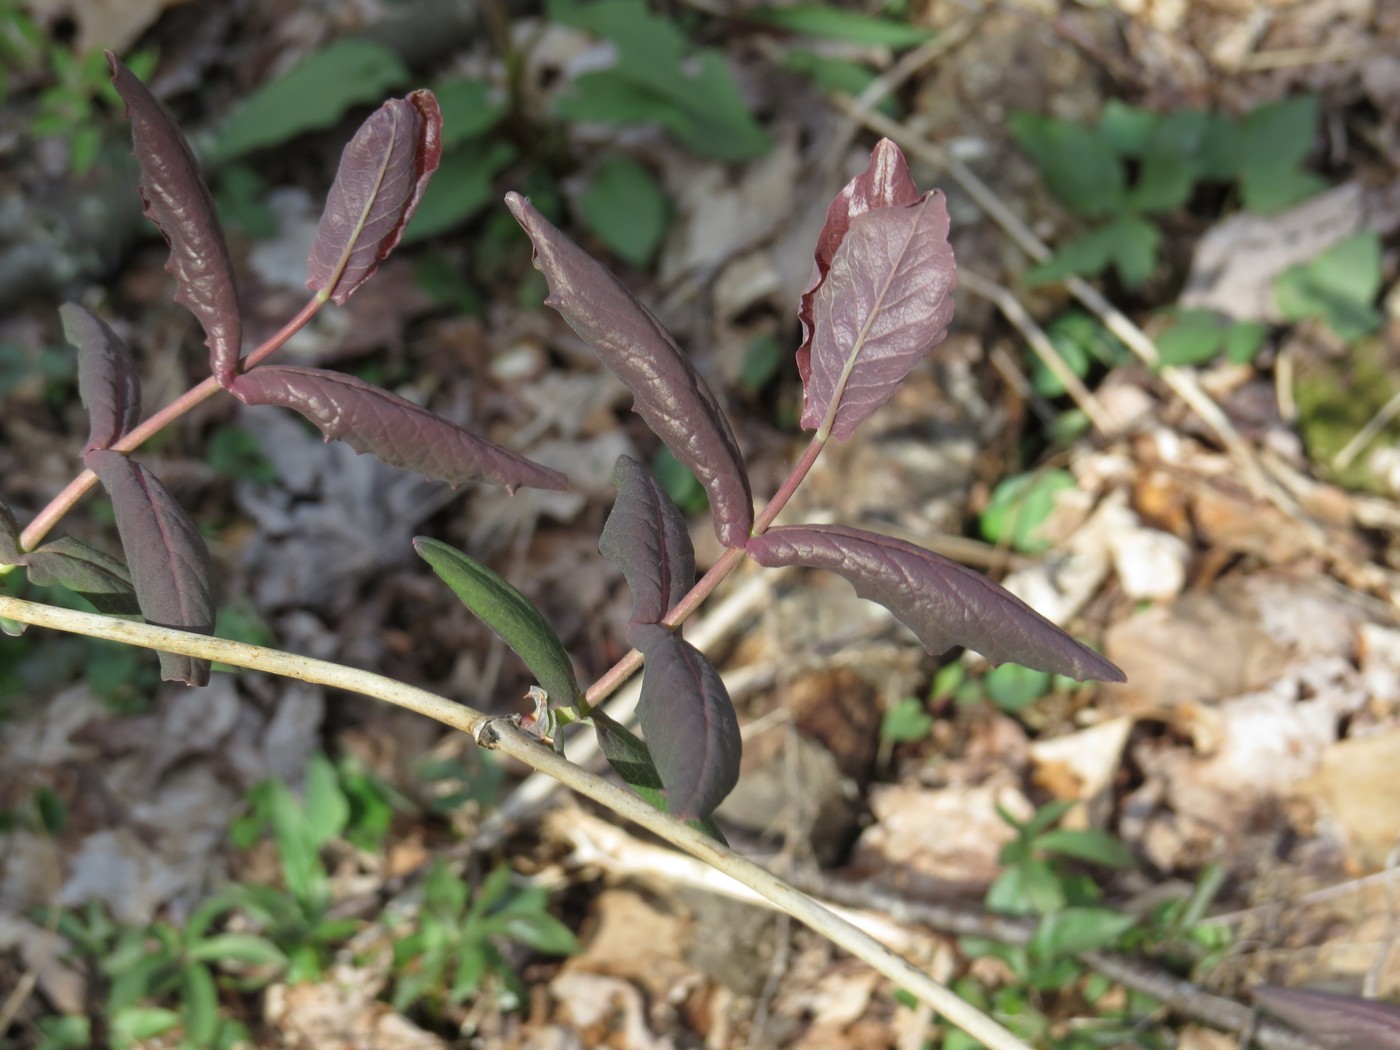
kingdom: Plantae
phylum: Tracheophyta
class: Magnoliopsida
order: Dipsacales
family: Caprifoliaceae
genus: Lonicera
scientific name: Lonicera dioica
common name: Limber honeysuckle
